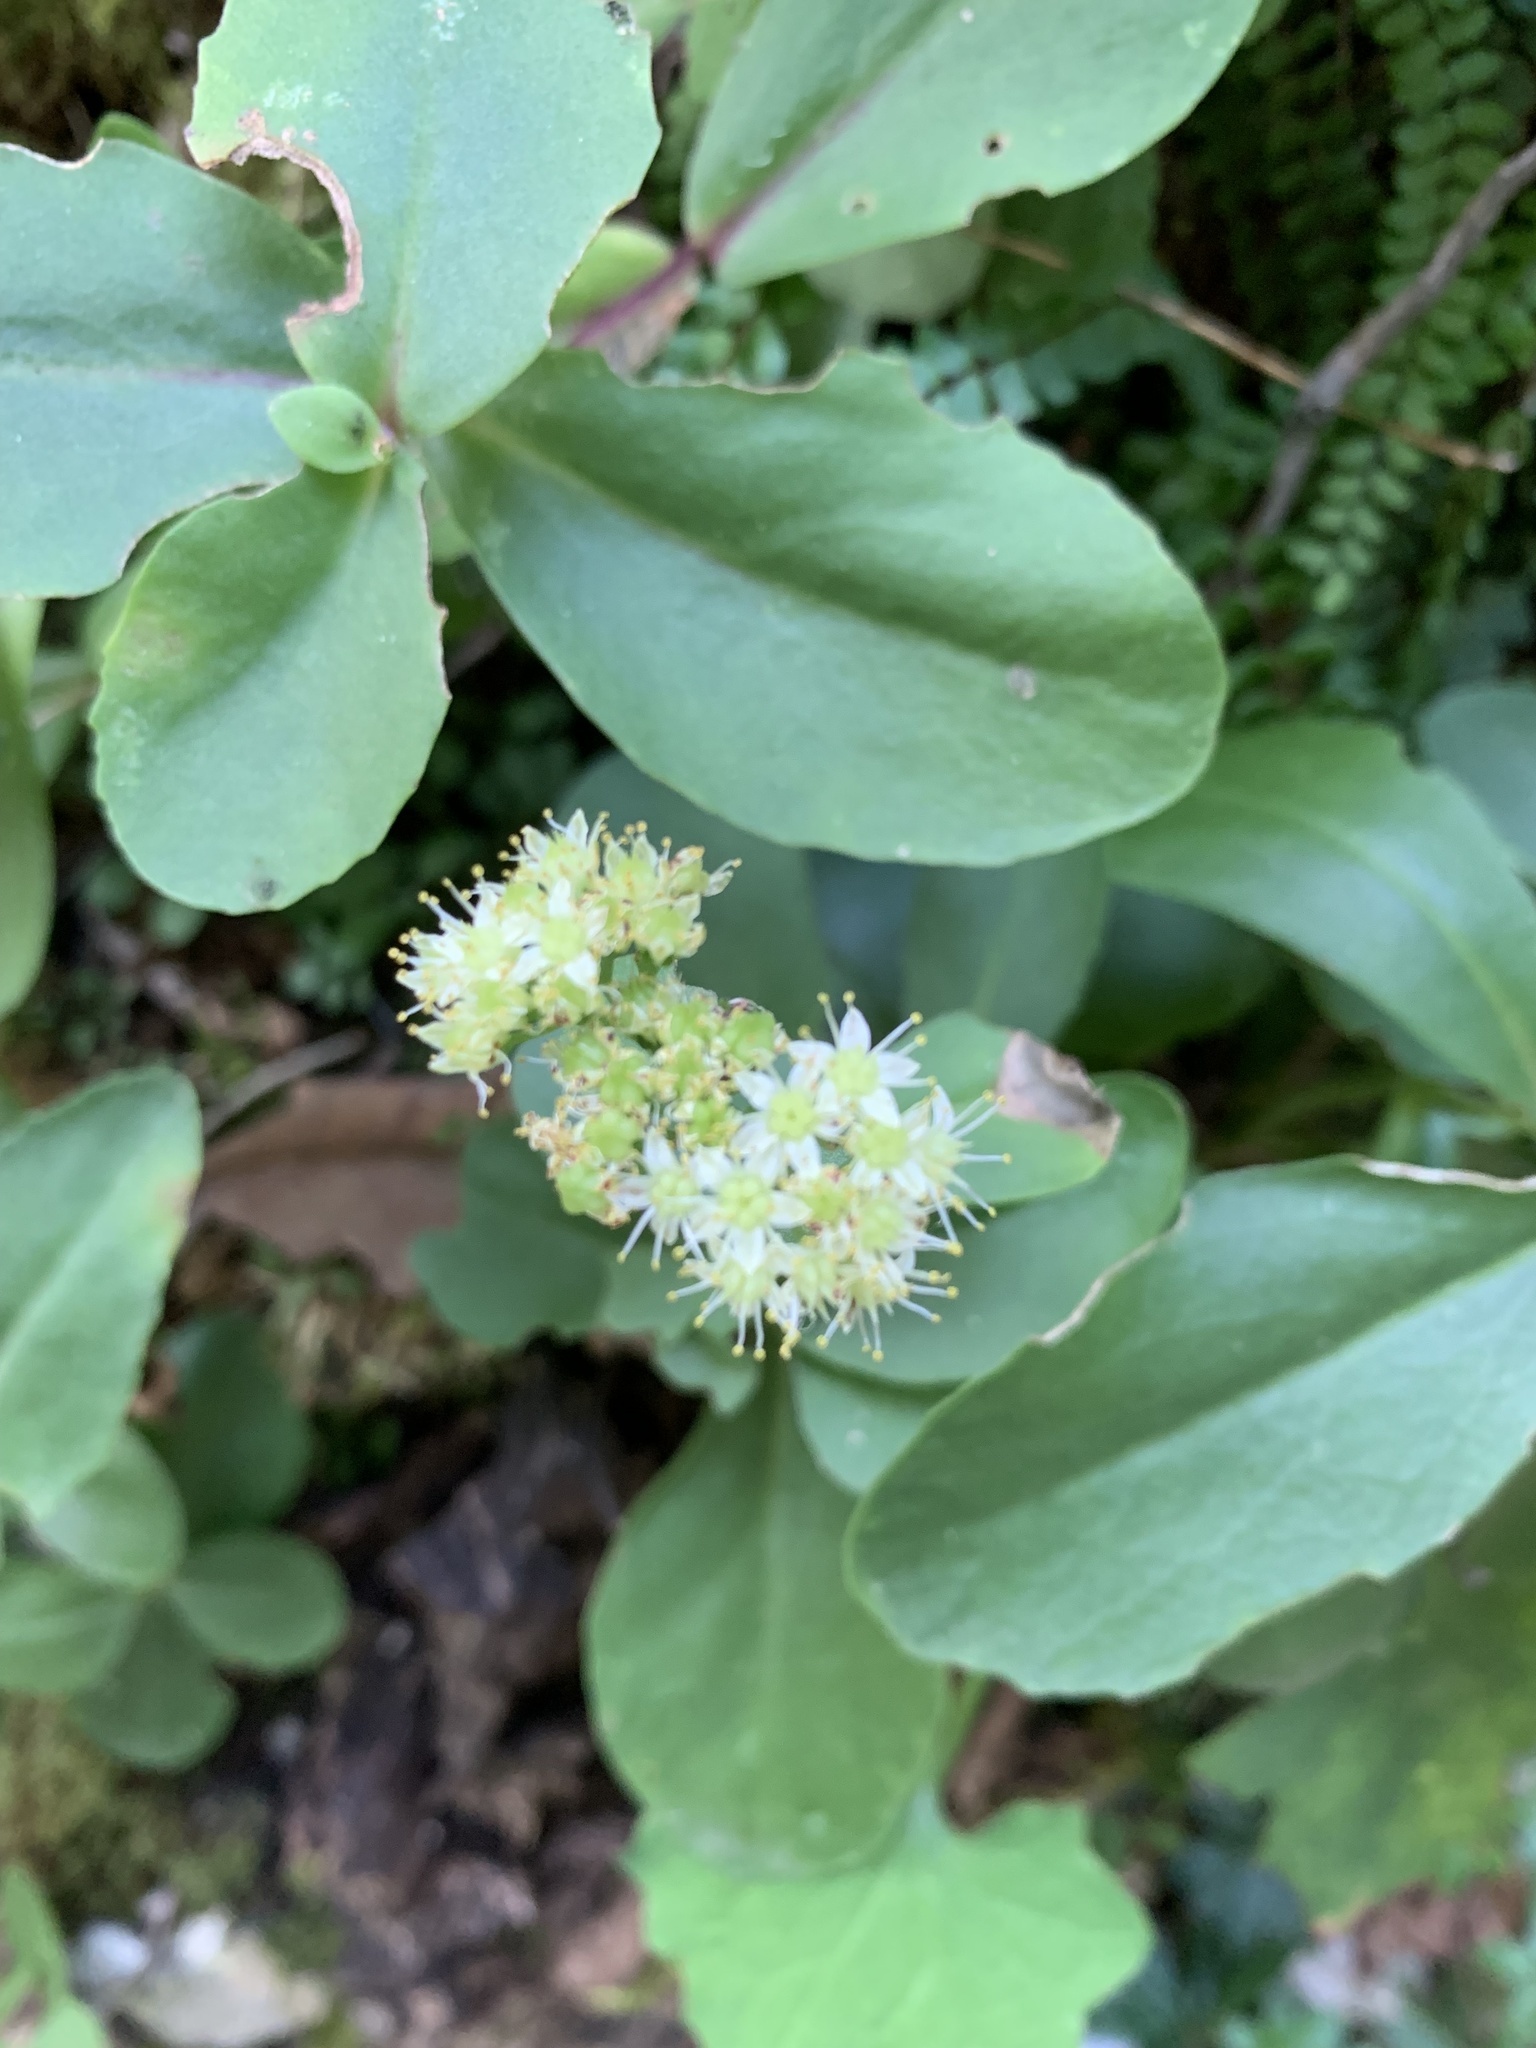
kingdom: Plantae
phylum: Tracheophyta
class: Magnoliopsida
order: Saxifragales
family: Crassulaceae
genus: Hylotelephium
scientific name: Hylotelephium maximum
